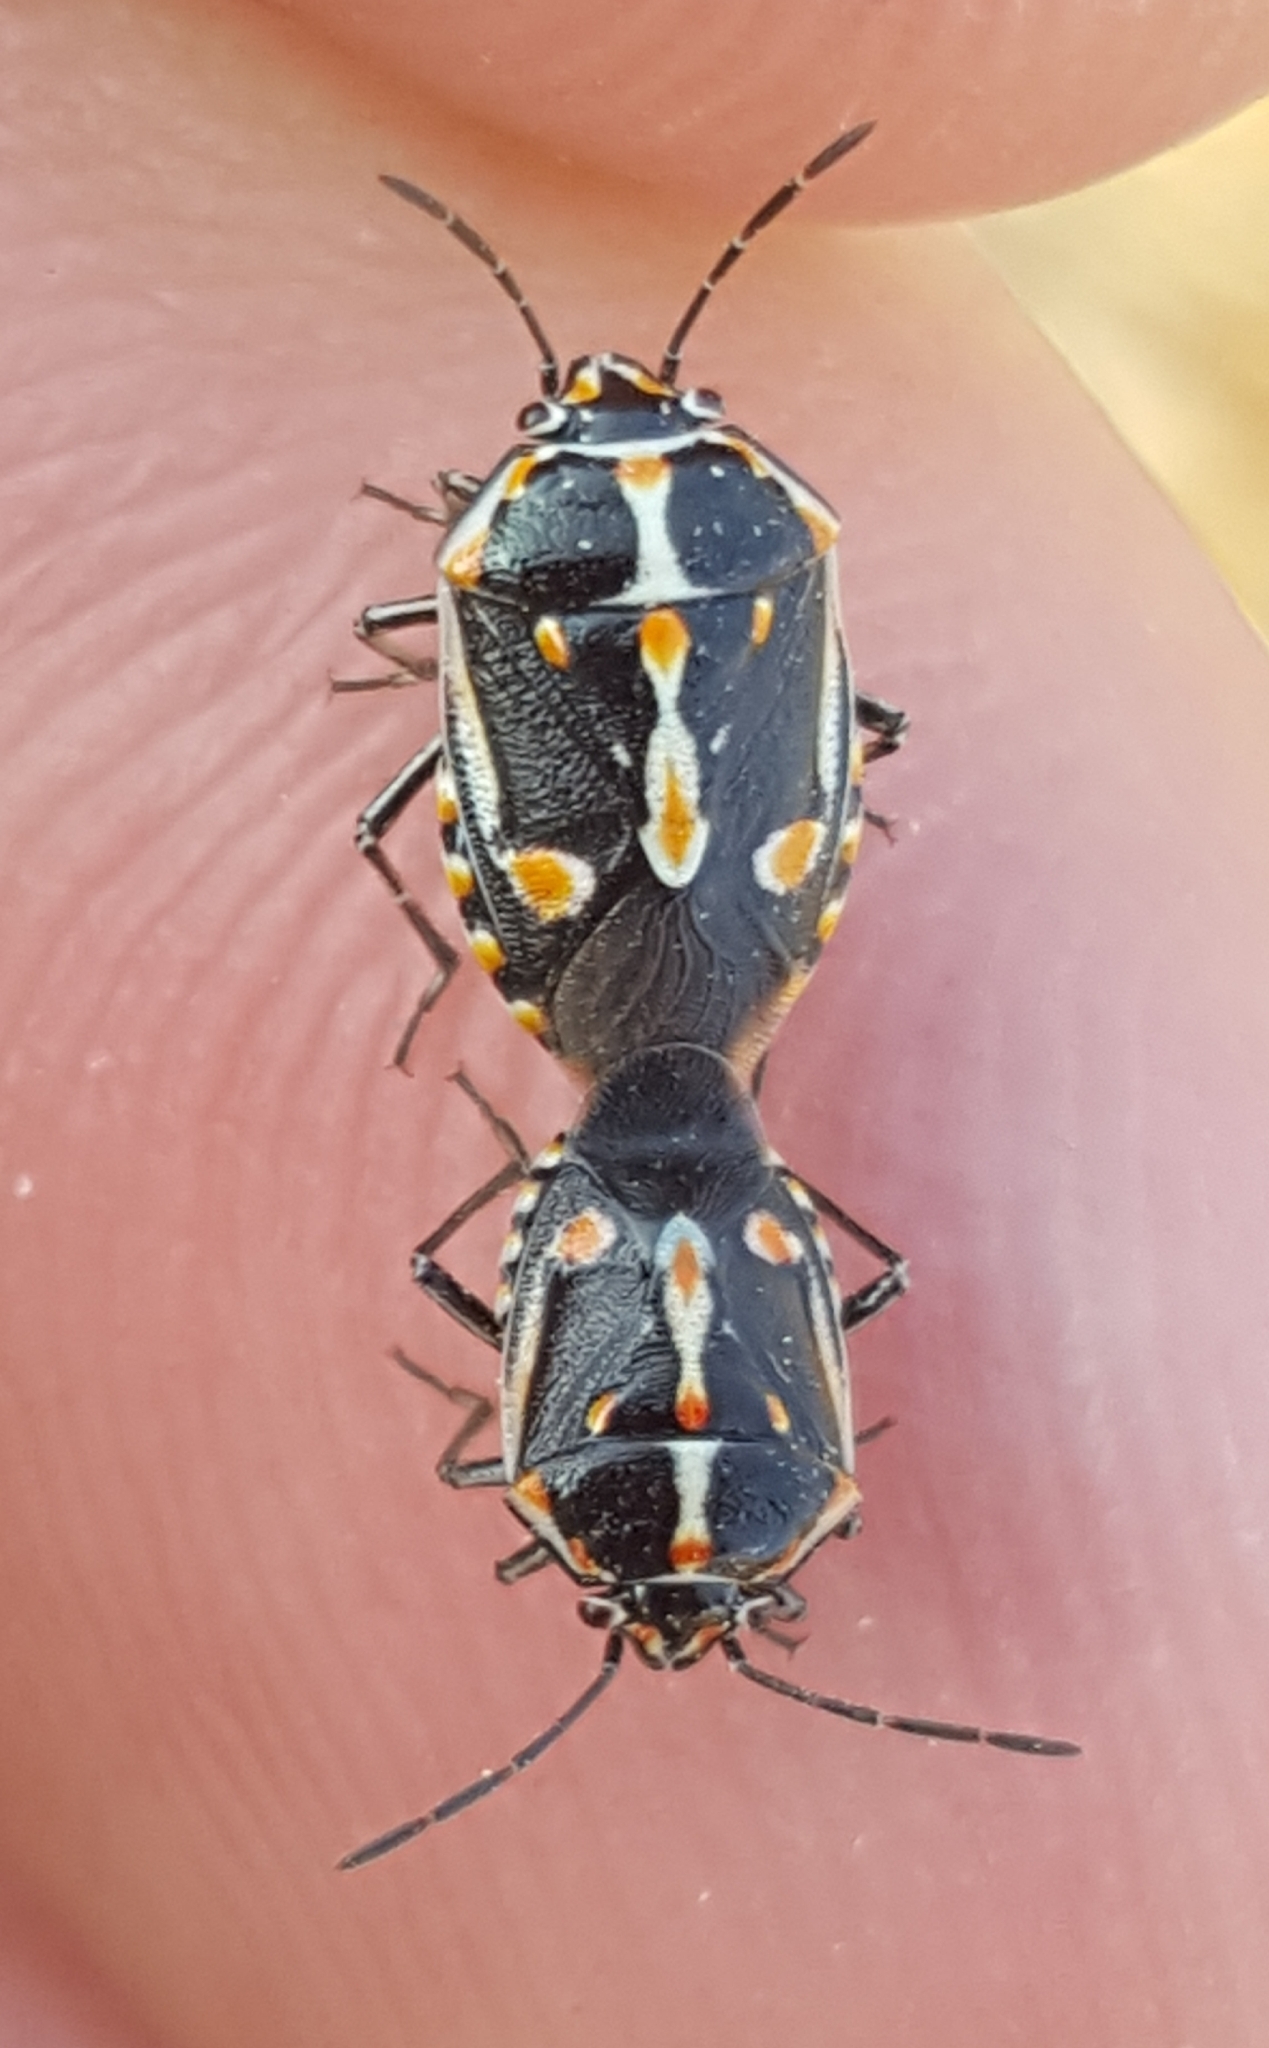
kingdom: Animalia
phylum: Arthropoda
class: Insecta
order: Hemiptera
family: Pentatomidae
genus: Bagrada
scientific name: Bagrada hilaris
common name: Bagrada bug
